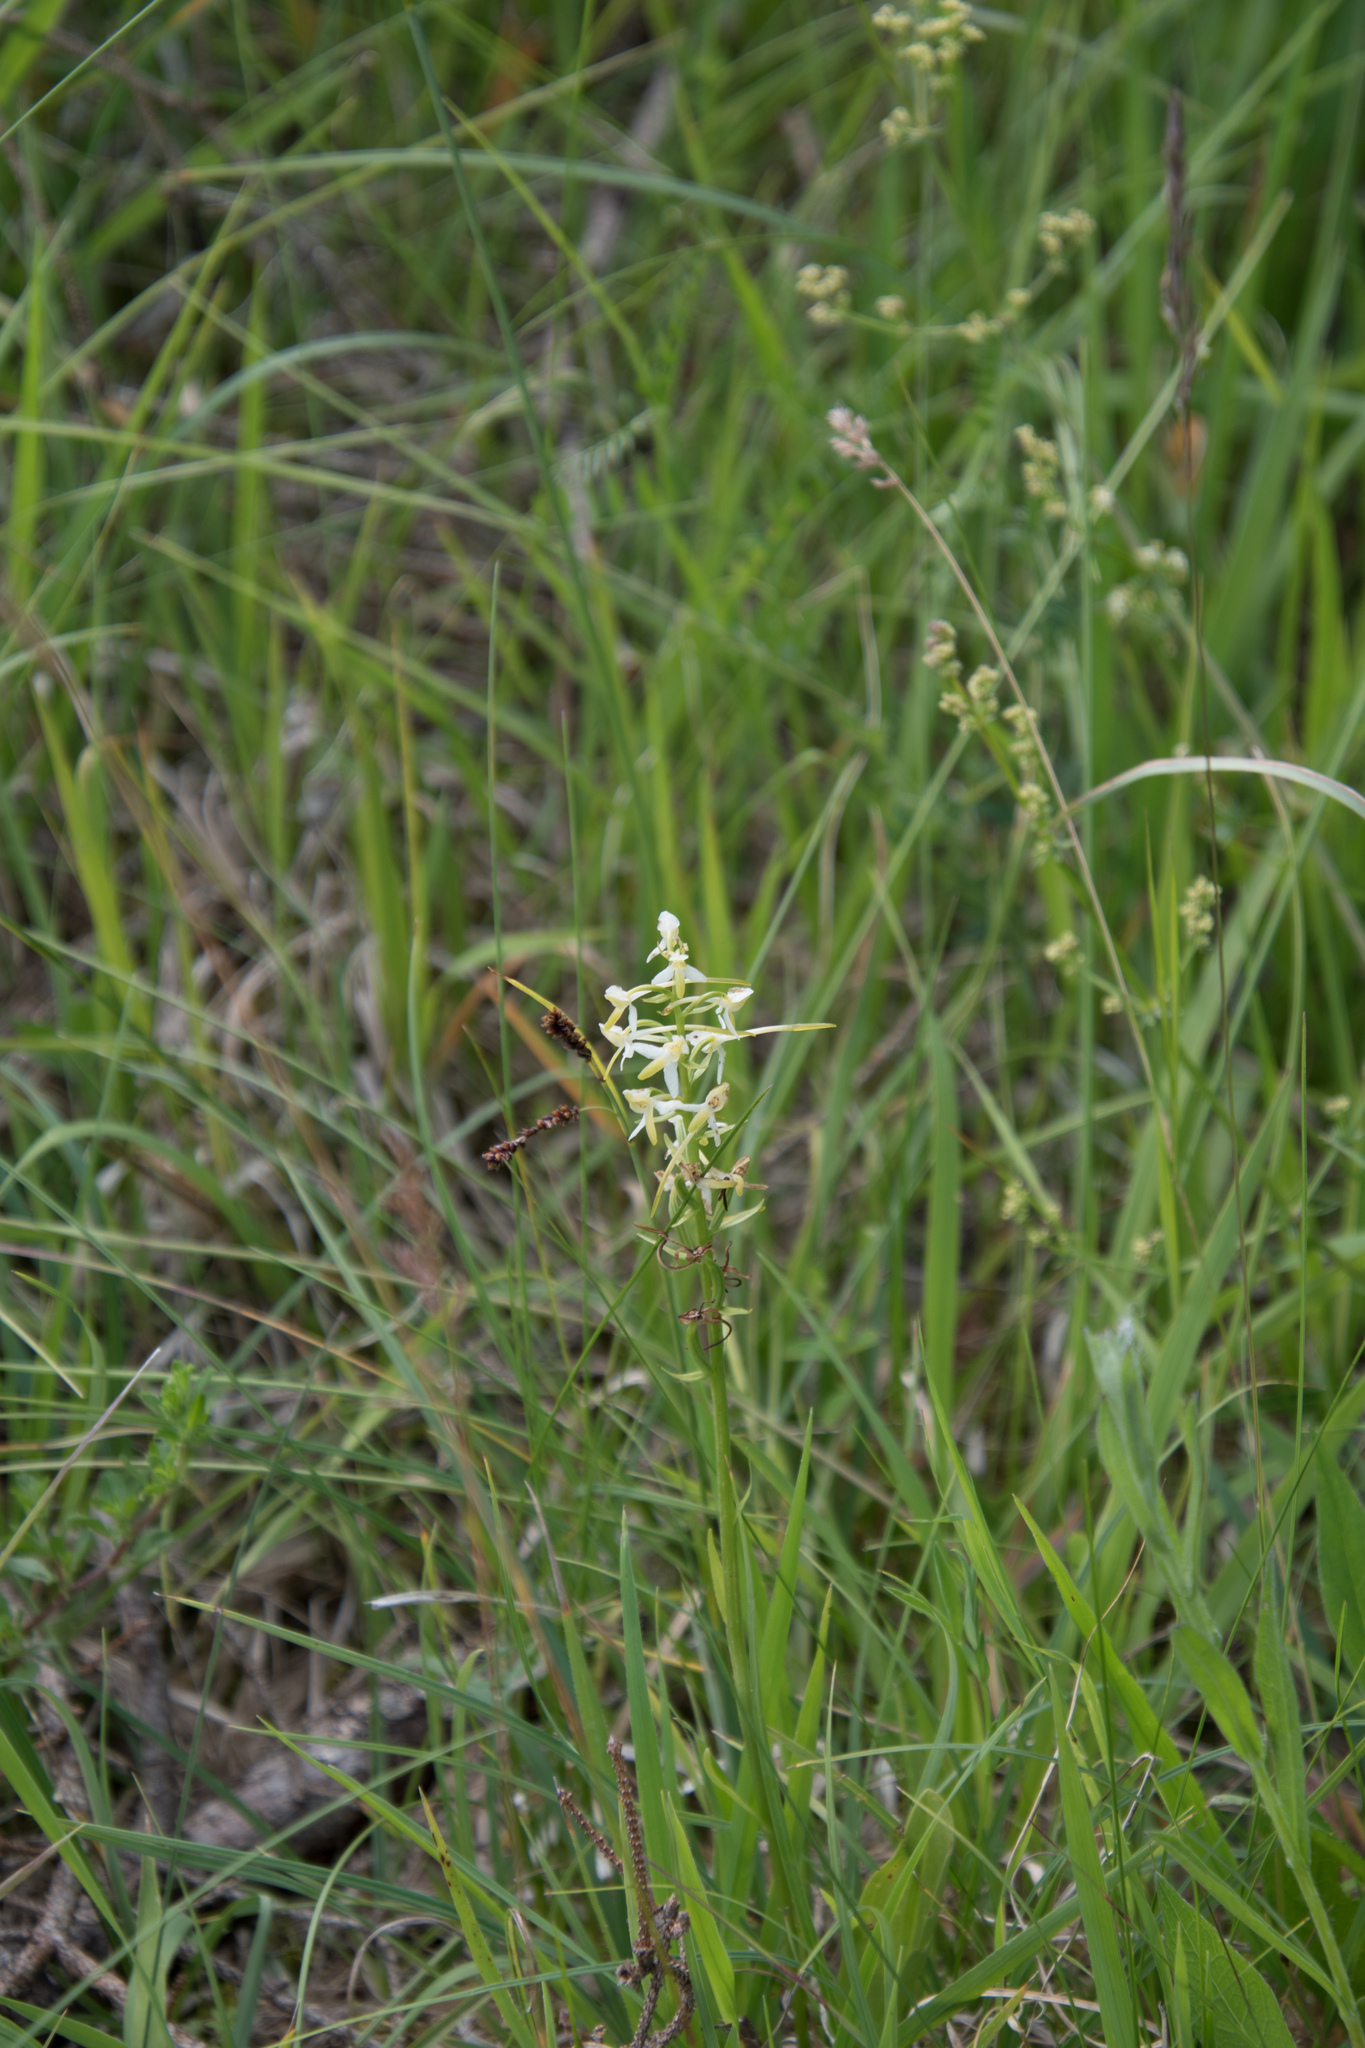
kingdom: Plantae
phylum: Tracheophyta
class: Liliopsida
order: Asparagales
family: Orchidaceae
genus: Platanthera
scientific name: Platanthera bifolia
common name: Lesser butterfly-orchid
